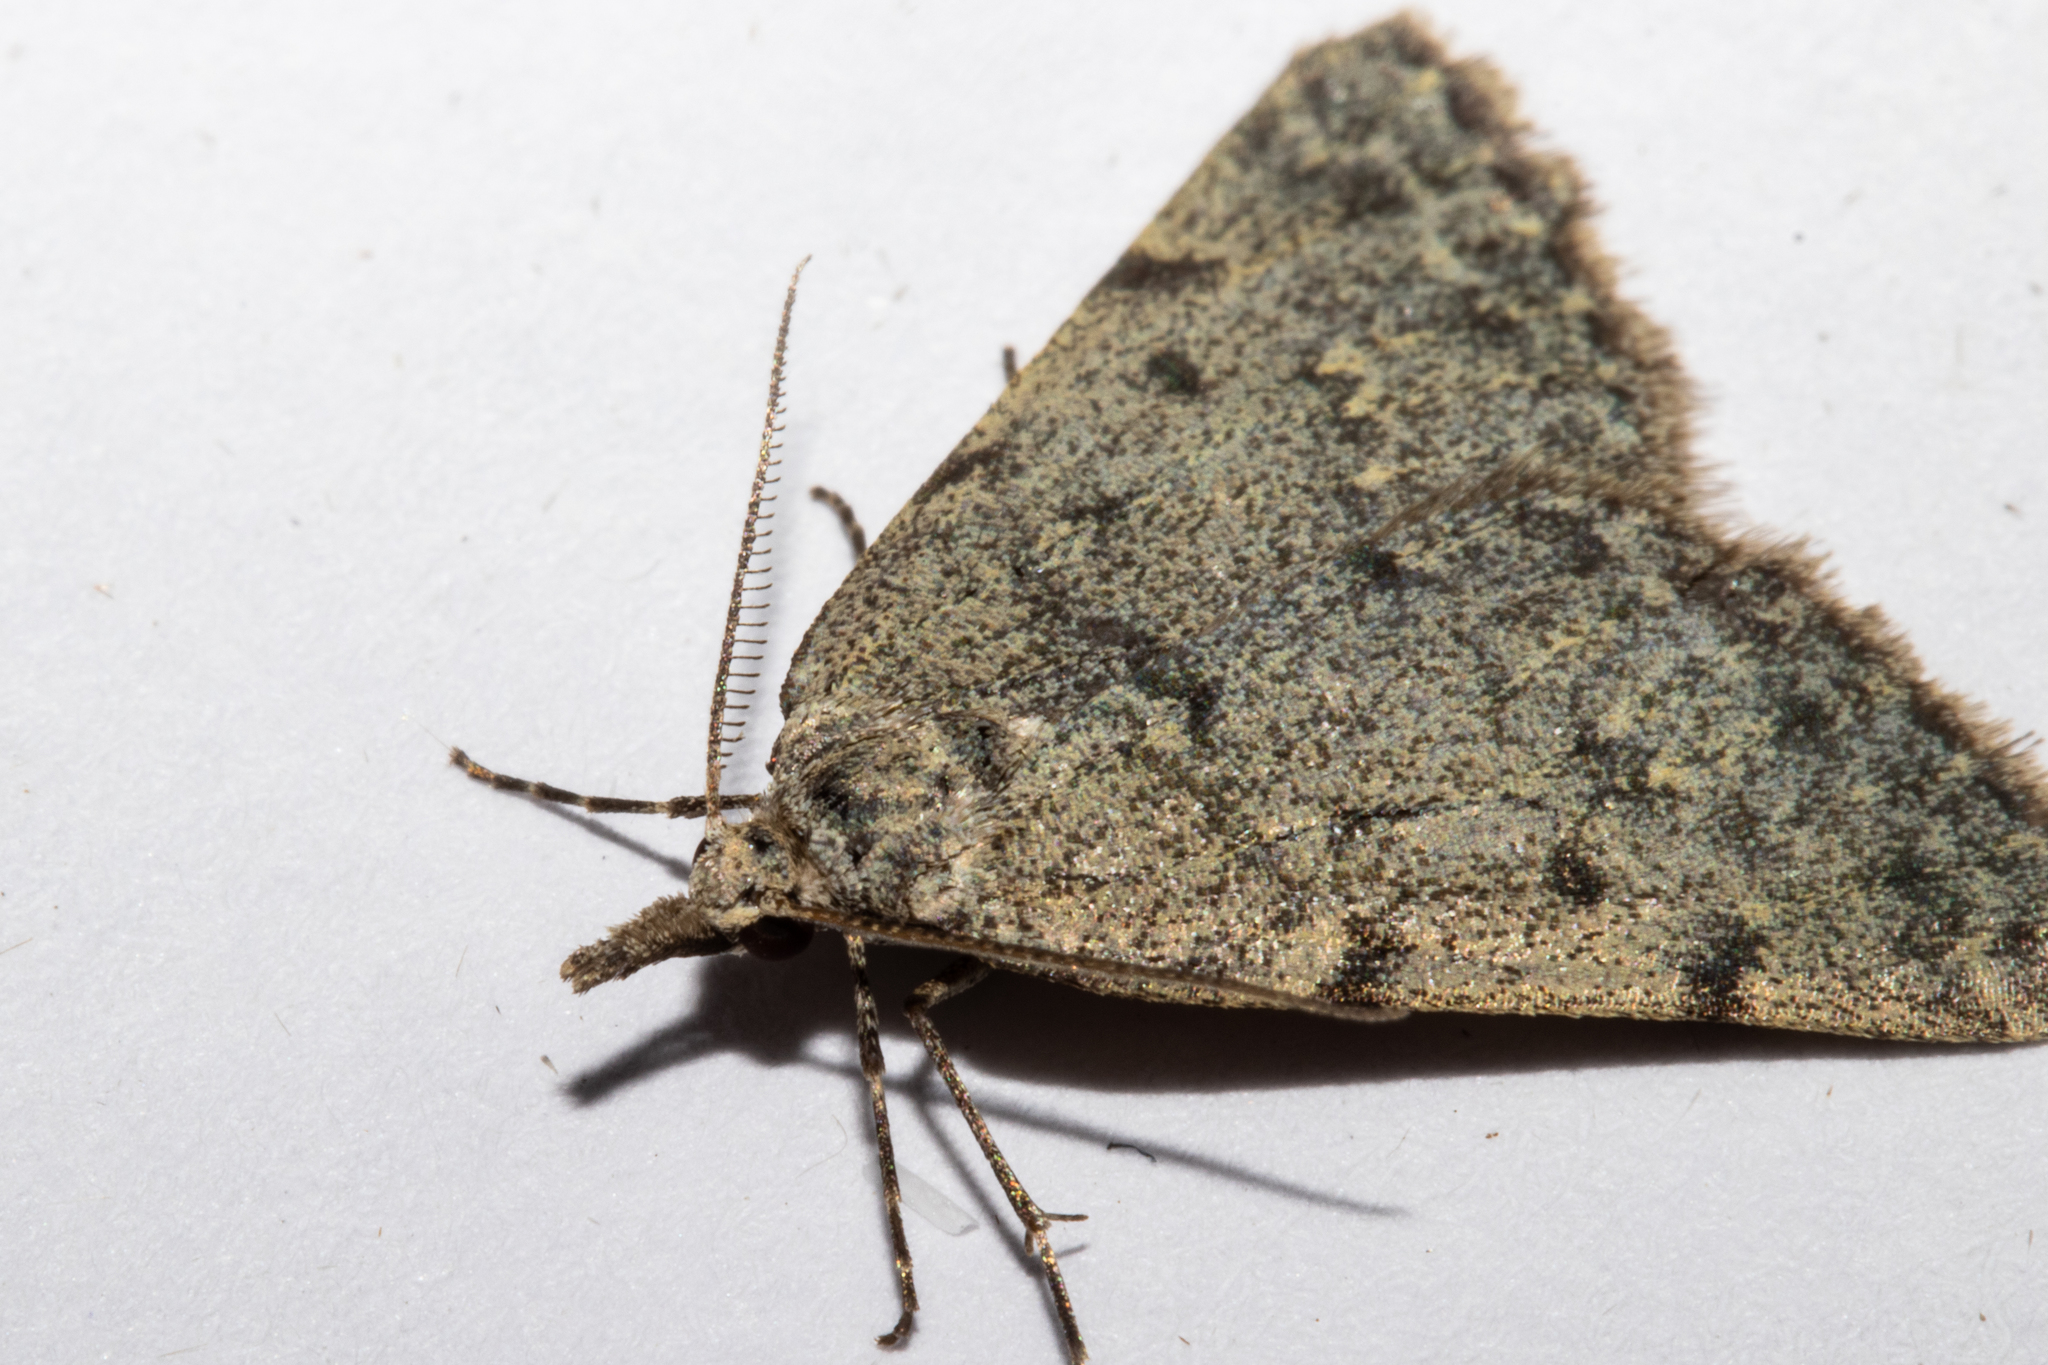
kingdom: Animalia
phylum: Arthropoda
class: Insecta
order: Lepidoptera
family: Geometridae
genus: Dichromodes
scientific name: Dichromodes sphaeriata
